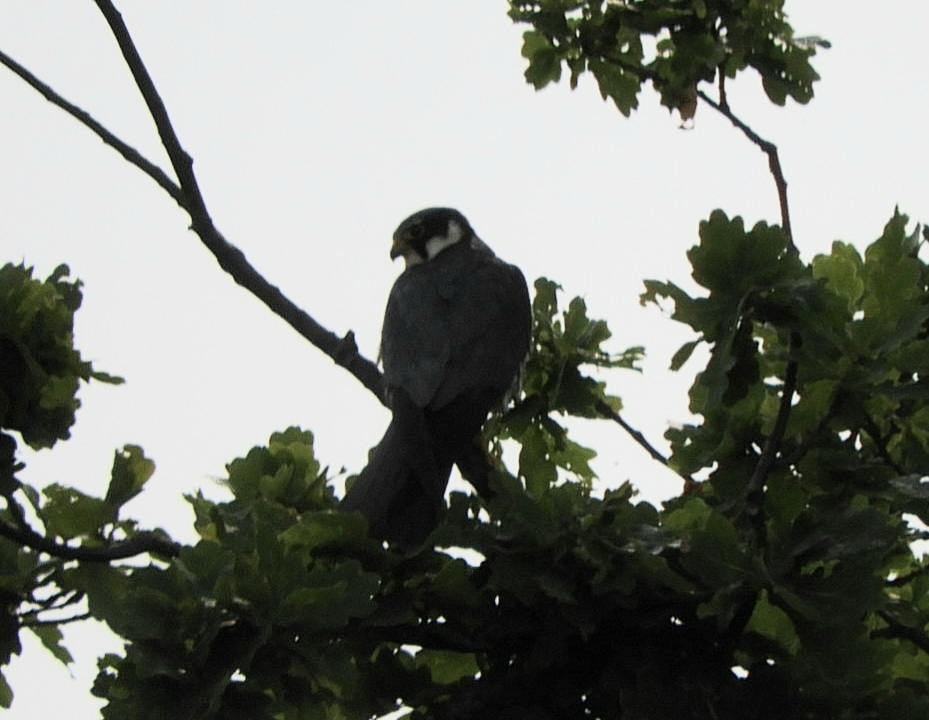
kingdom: Animalia
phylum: Chordata
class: Aves
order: Falconiformes
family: Falconidae
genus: Falco
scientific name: Falco subbuteo
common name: Eurasian hobby
